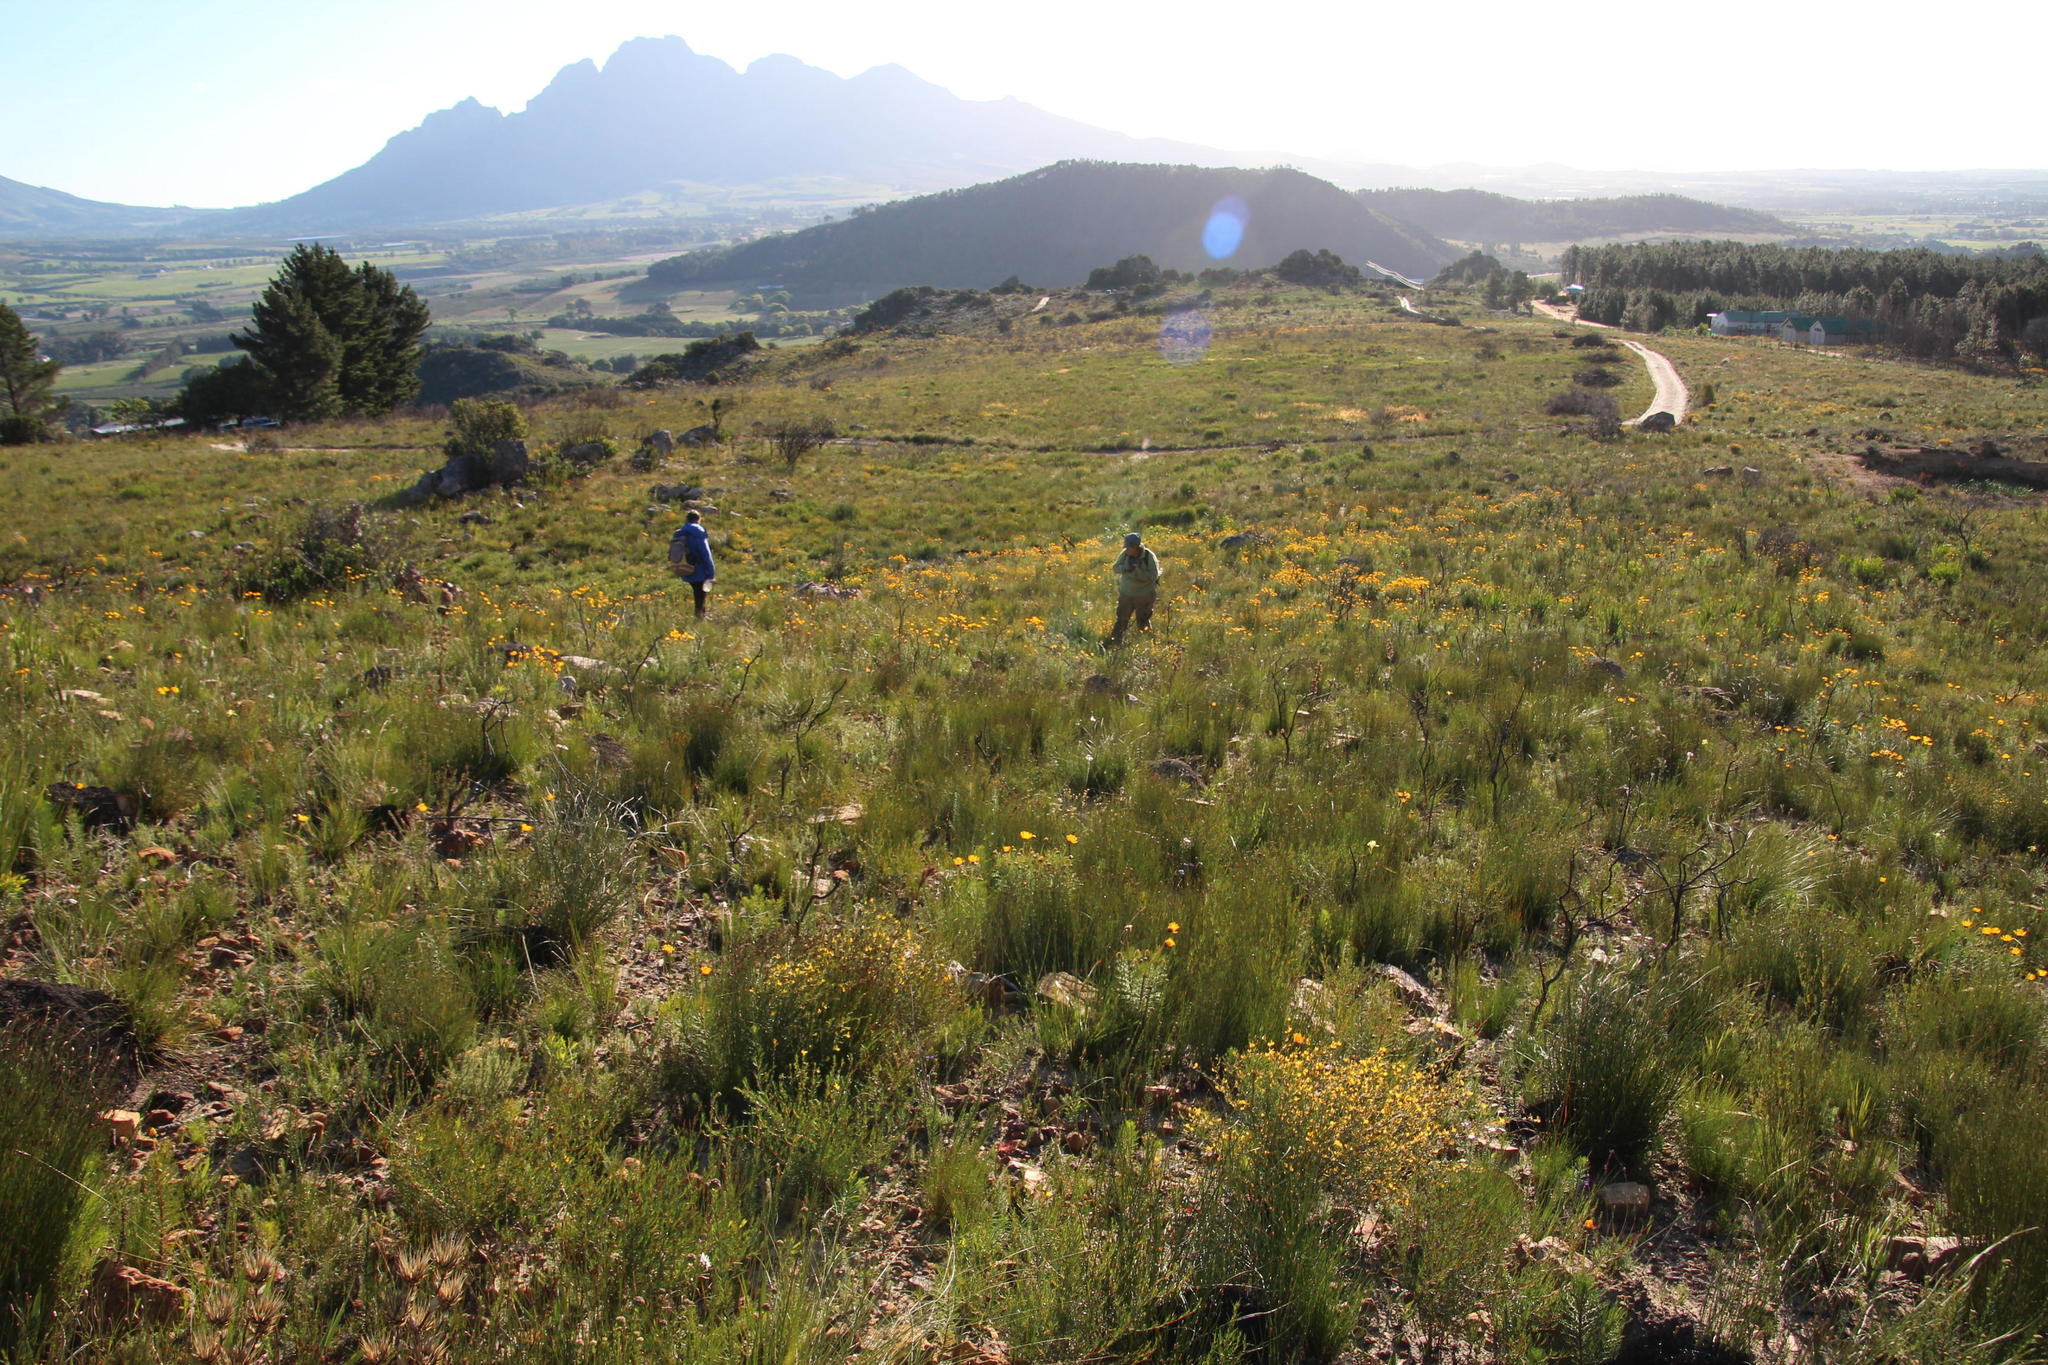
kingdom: Plantae
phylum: Tracheophyta
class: Magnoliopsida
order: Caryophyllales
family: Aizoaceae
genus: Acrosanthes
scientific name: Acrosanthes teretifolia
